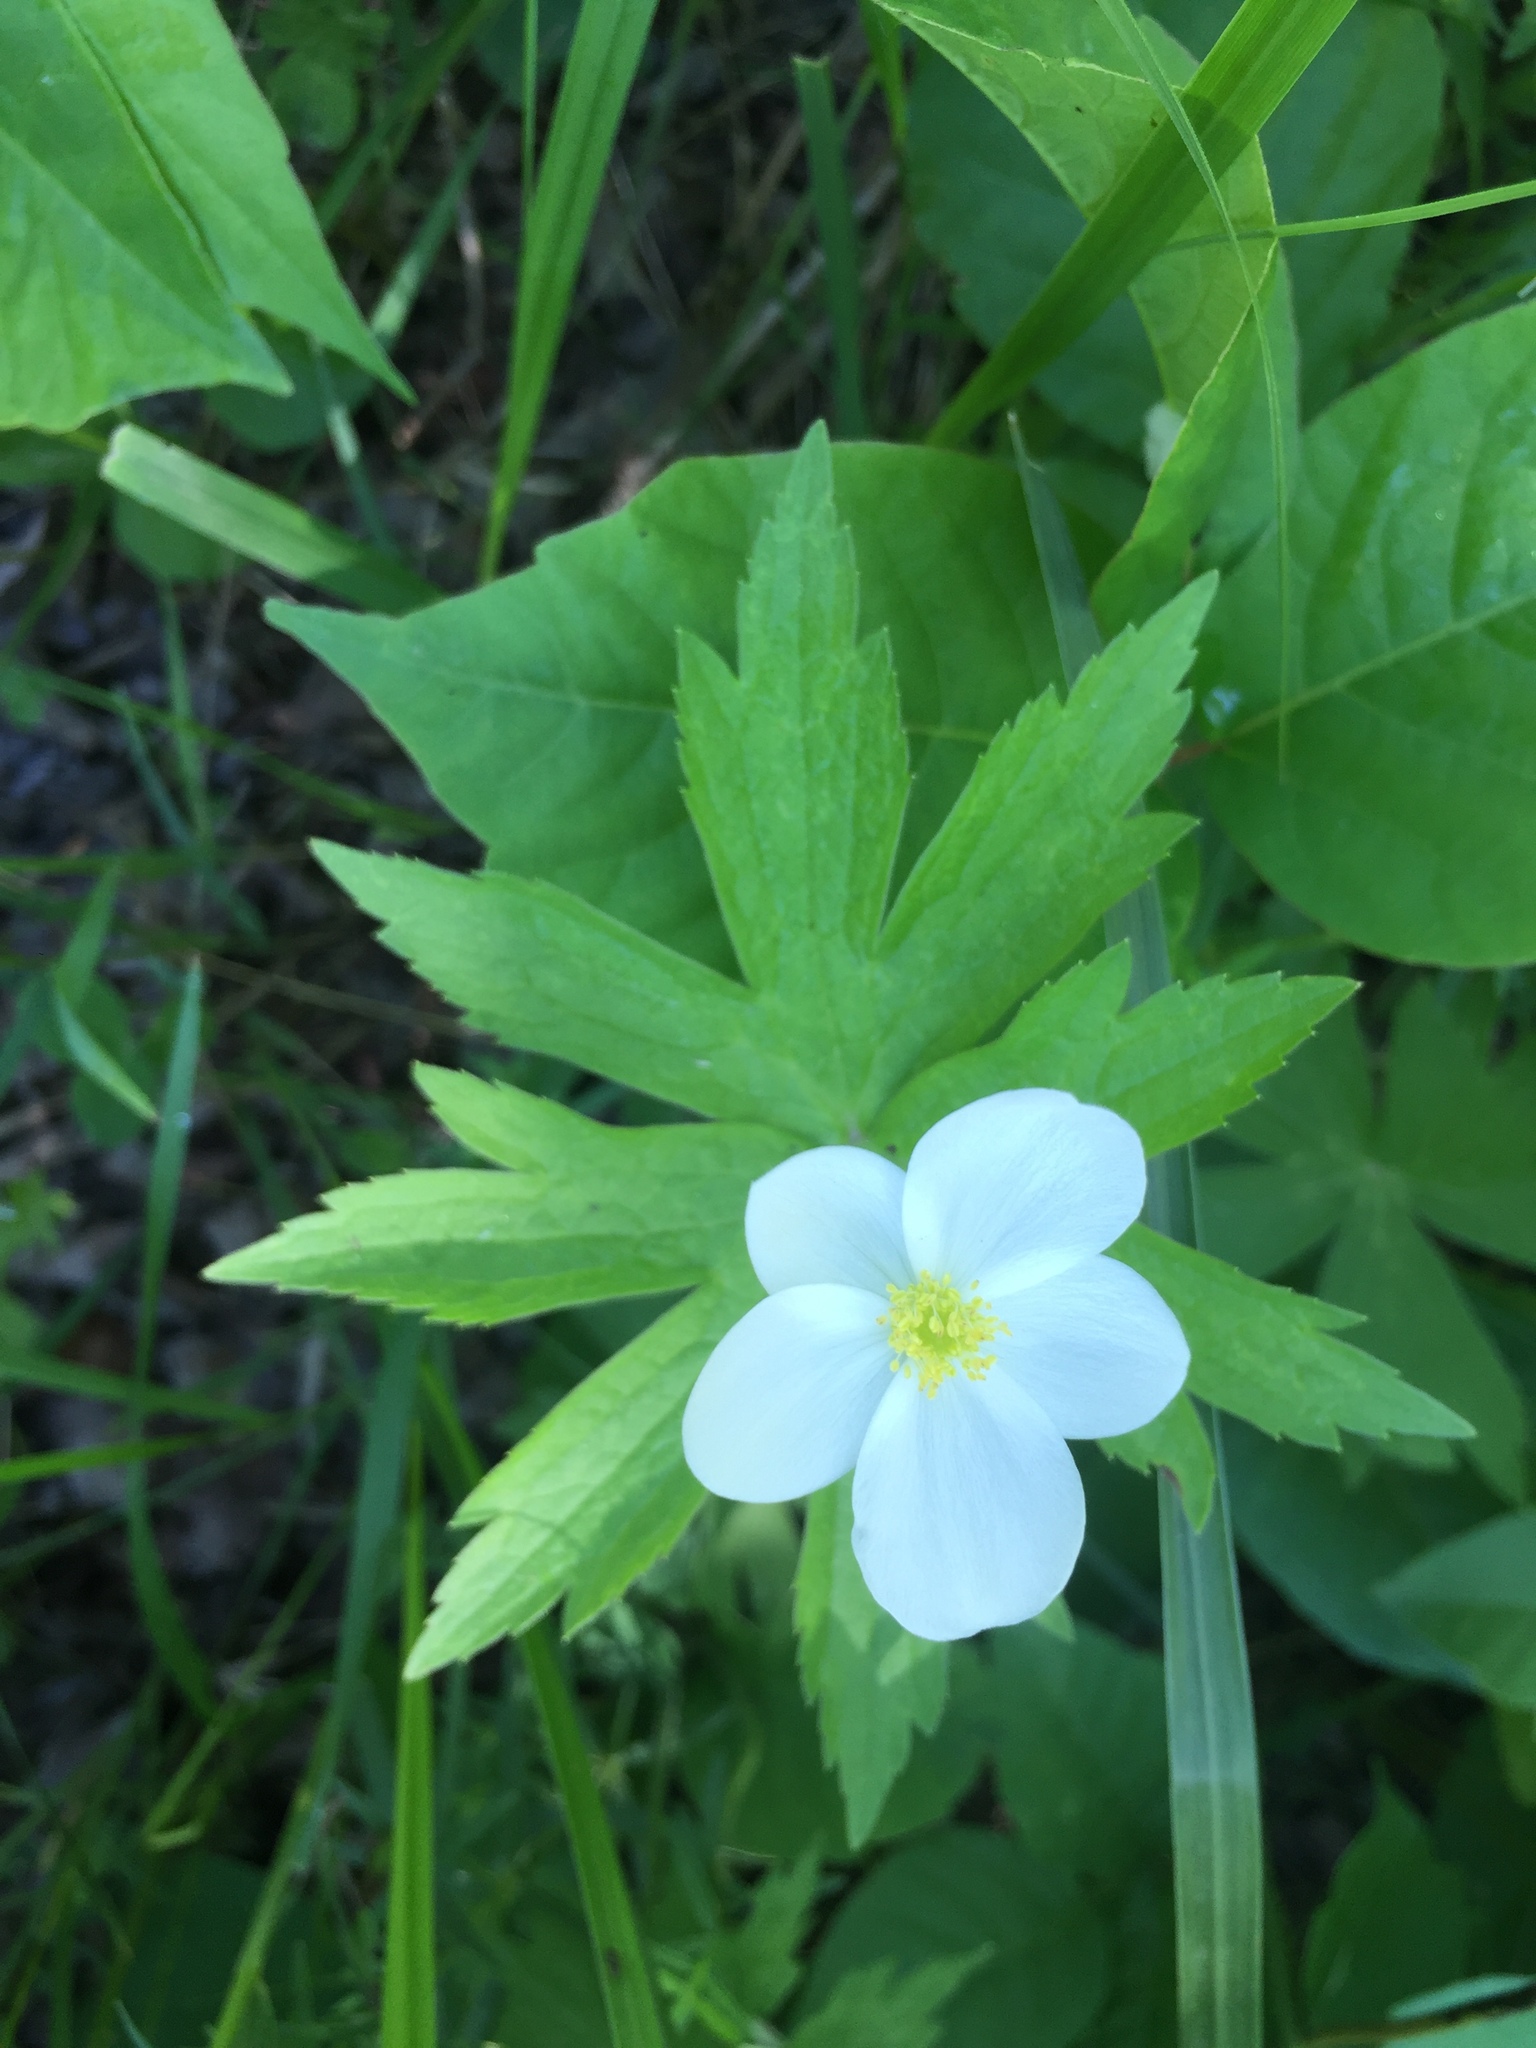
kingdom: Plantae
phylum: Tracheophyta
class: Magnoliopsida
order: Ranunculales
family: Ranunculaceae
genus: Anemonastrum
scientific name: Anemonastrum canadense
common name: Canada anemone
